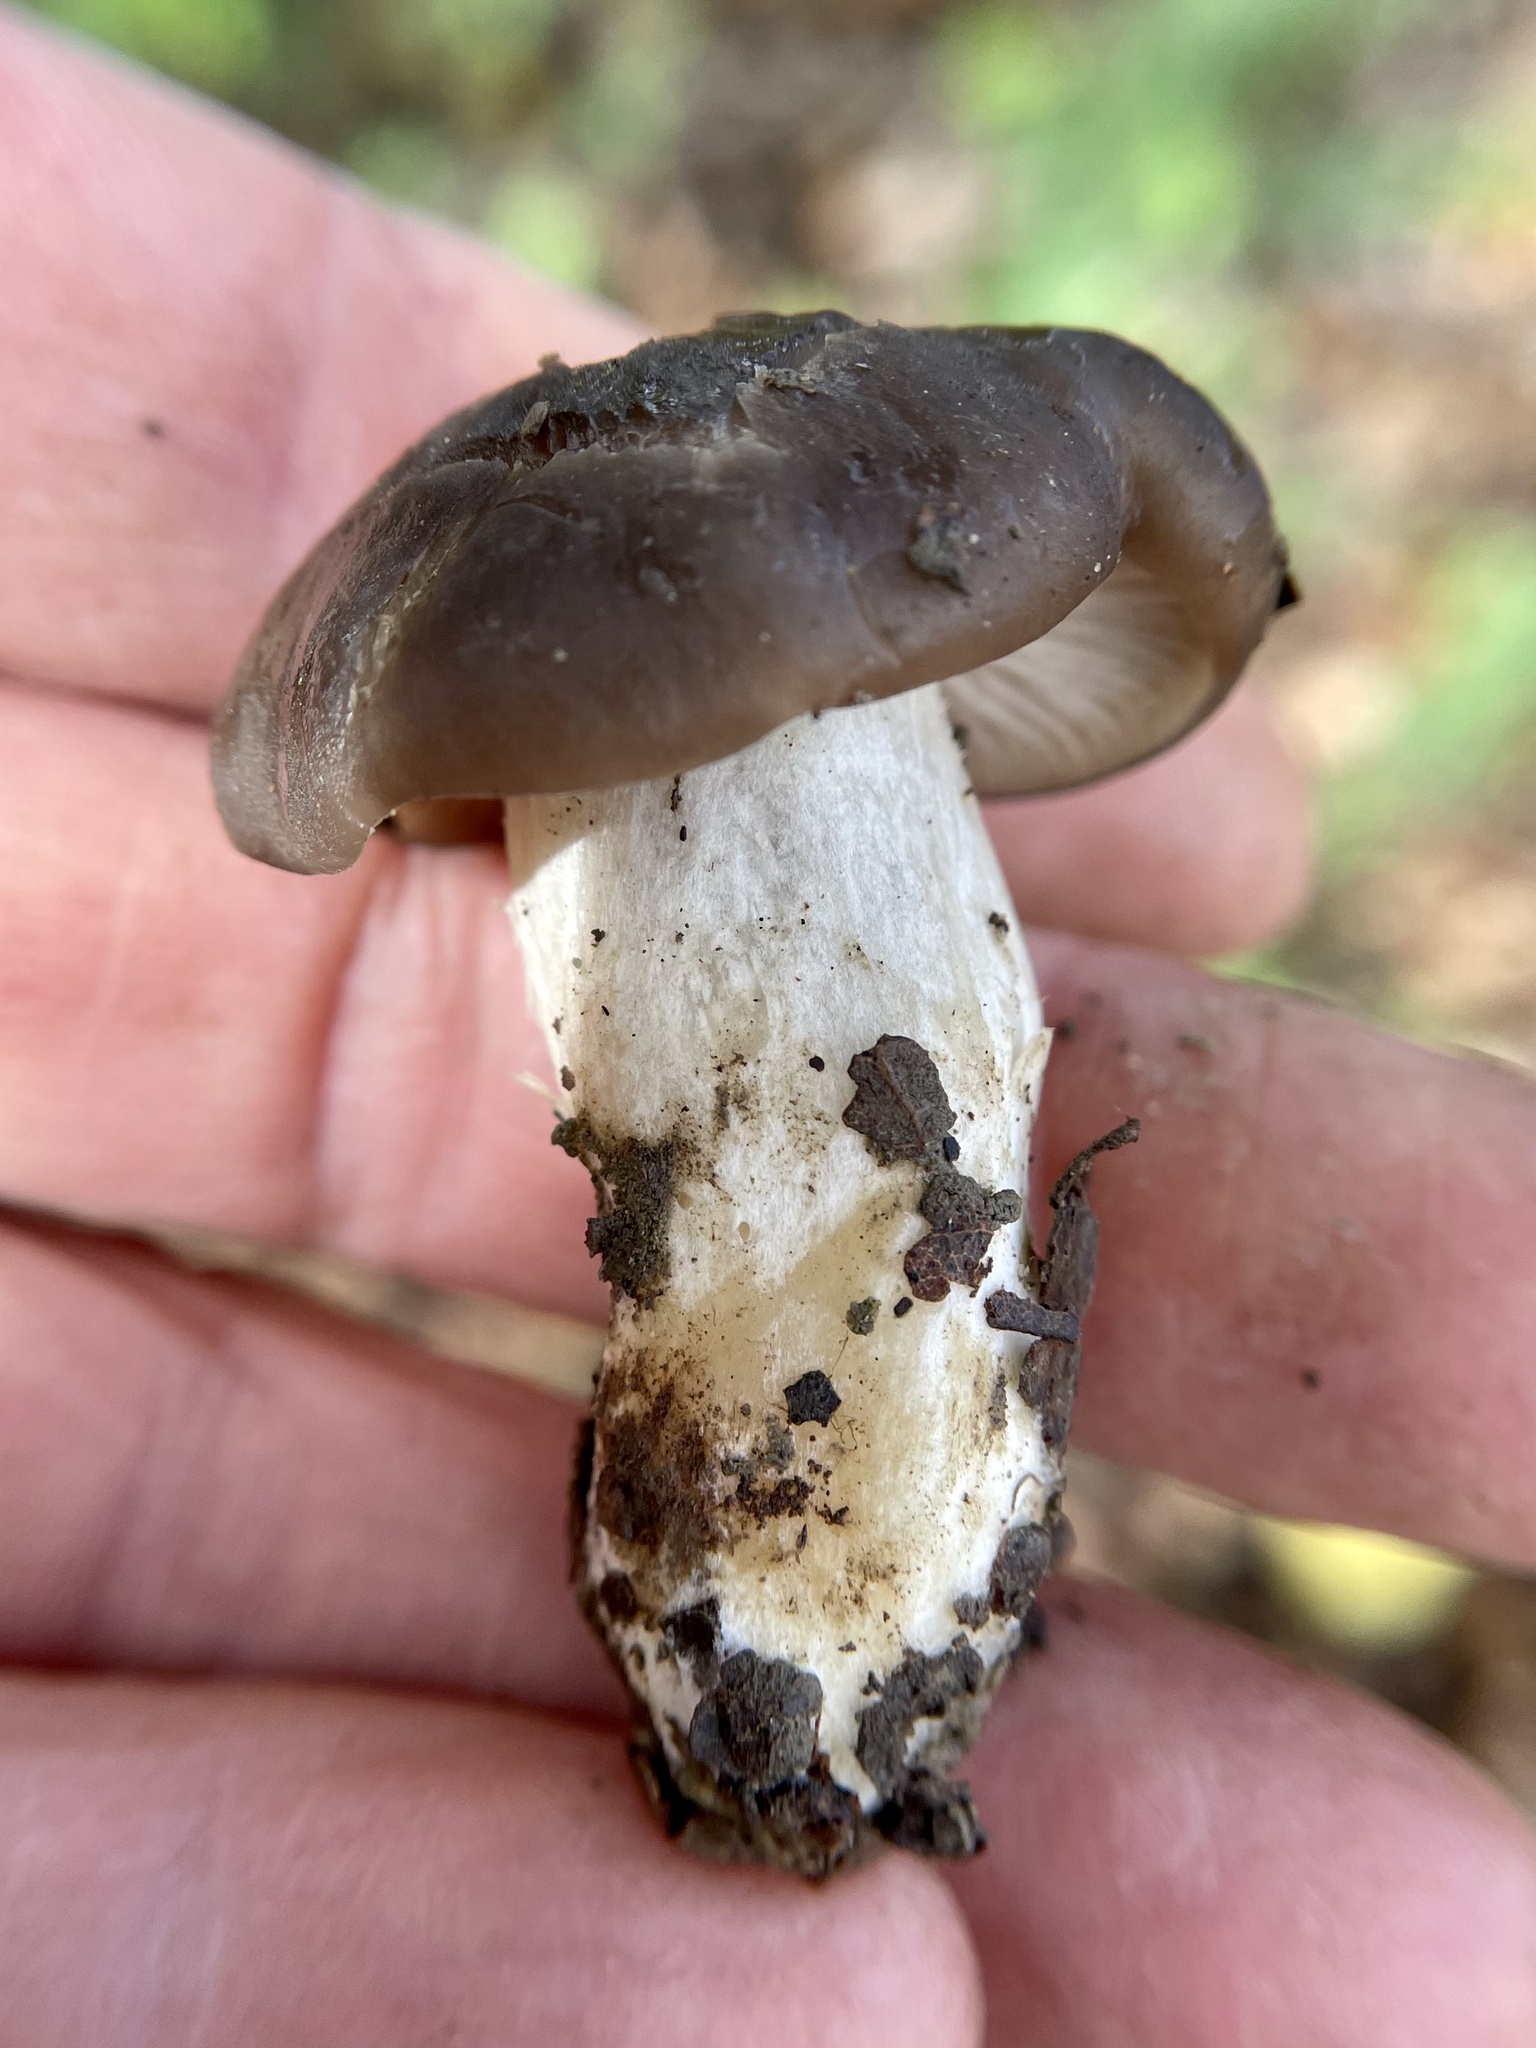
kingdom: Fungi
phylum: Basidiomycota
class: Agaricomycetes
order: Agaricales
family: Entolomataceae
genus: Entoloma
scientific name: Entoloma ferruginans
